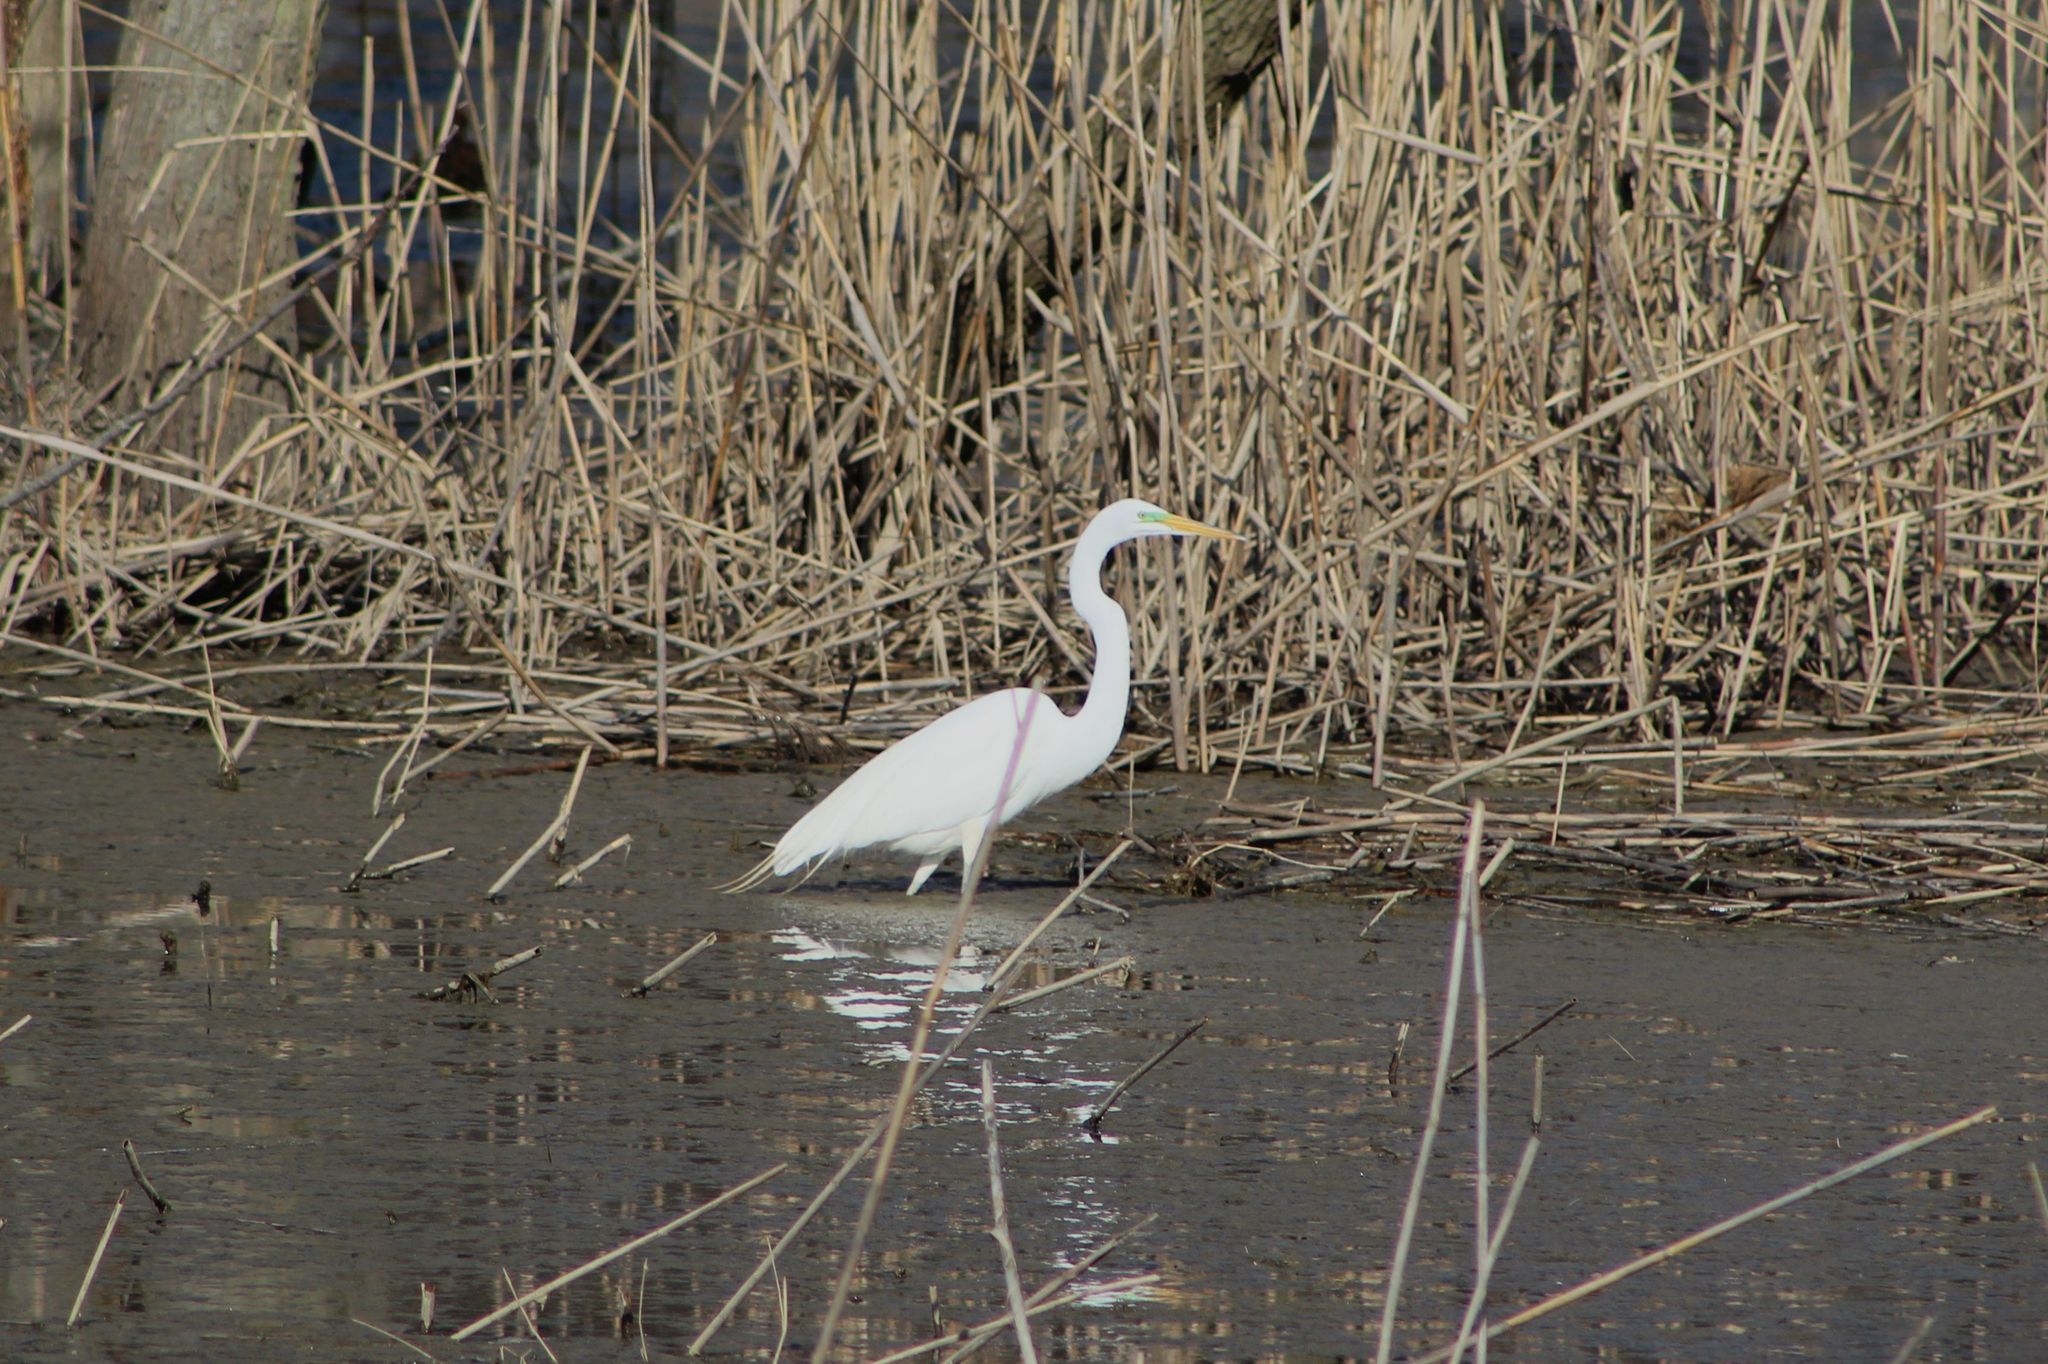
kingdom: Animalia
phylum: Chordata
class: Aves
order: Pelecaniformes
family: Ardeidae
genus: Ardea
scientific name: Ardea alba
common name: Great egret
